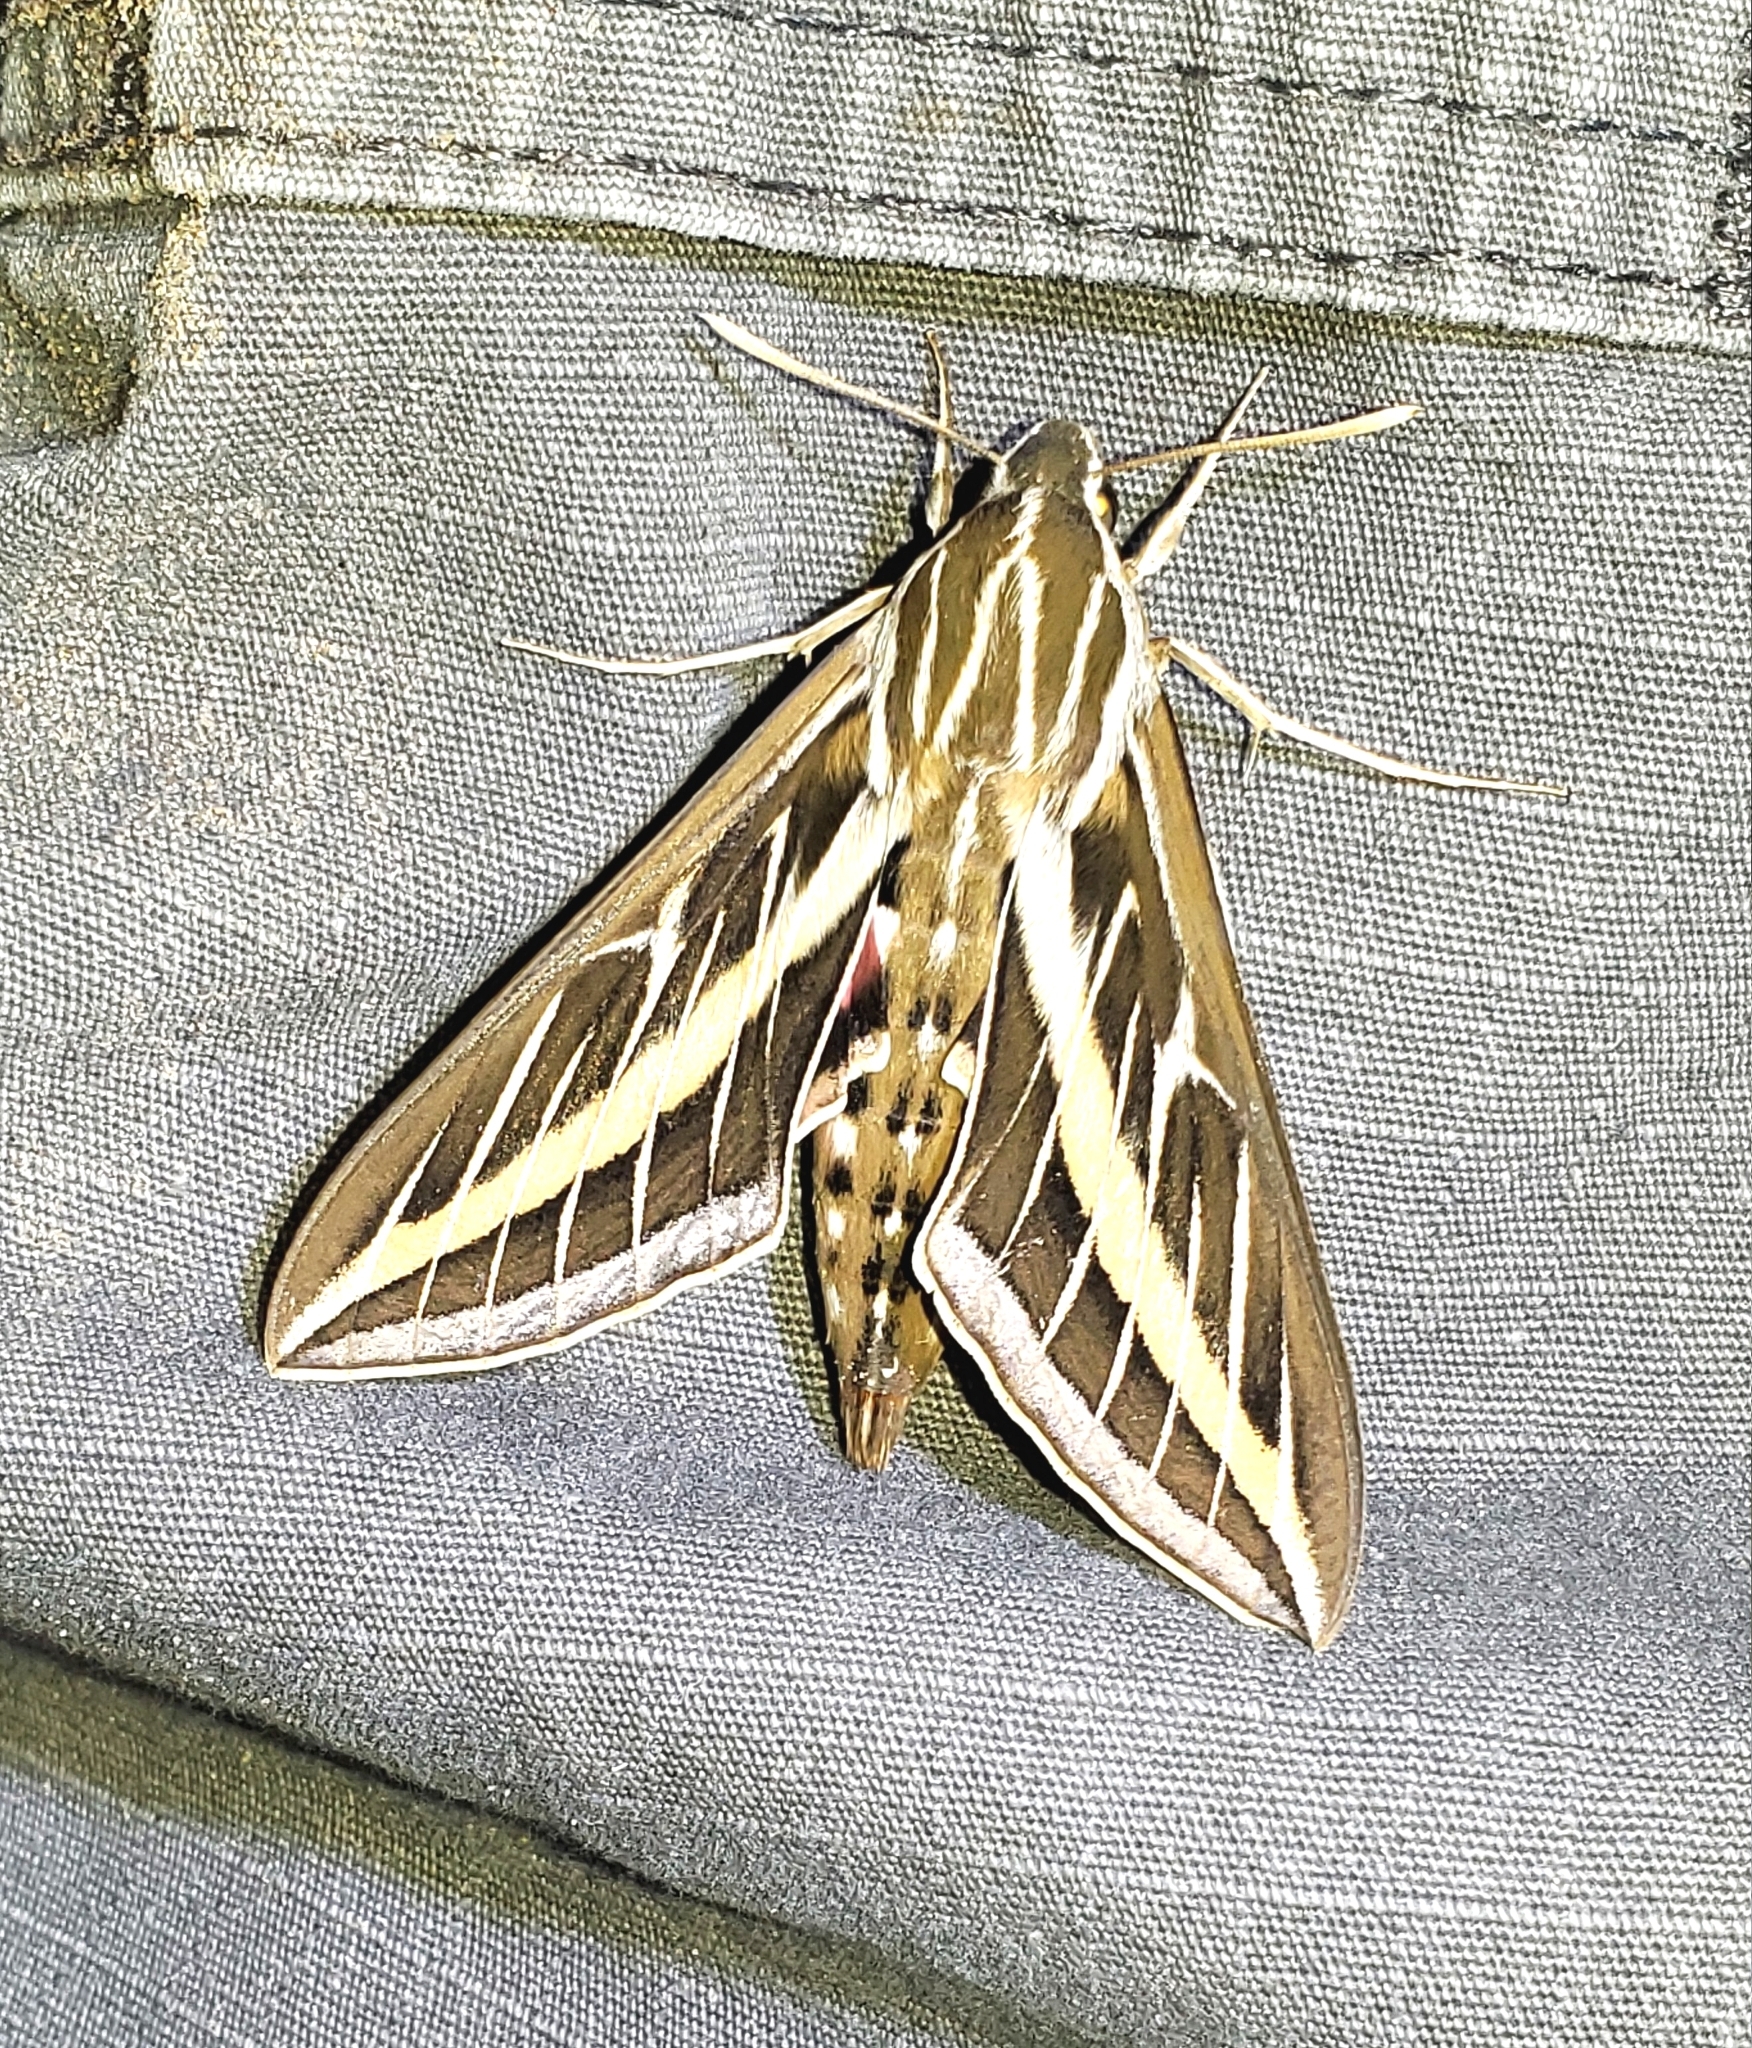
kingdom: Animalia
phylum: Arthropoda
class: Insecta
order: Lepidoptera
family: Sphingidae
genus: Hyles
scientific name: Hyles lineata
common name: White-lined sphinx
